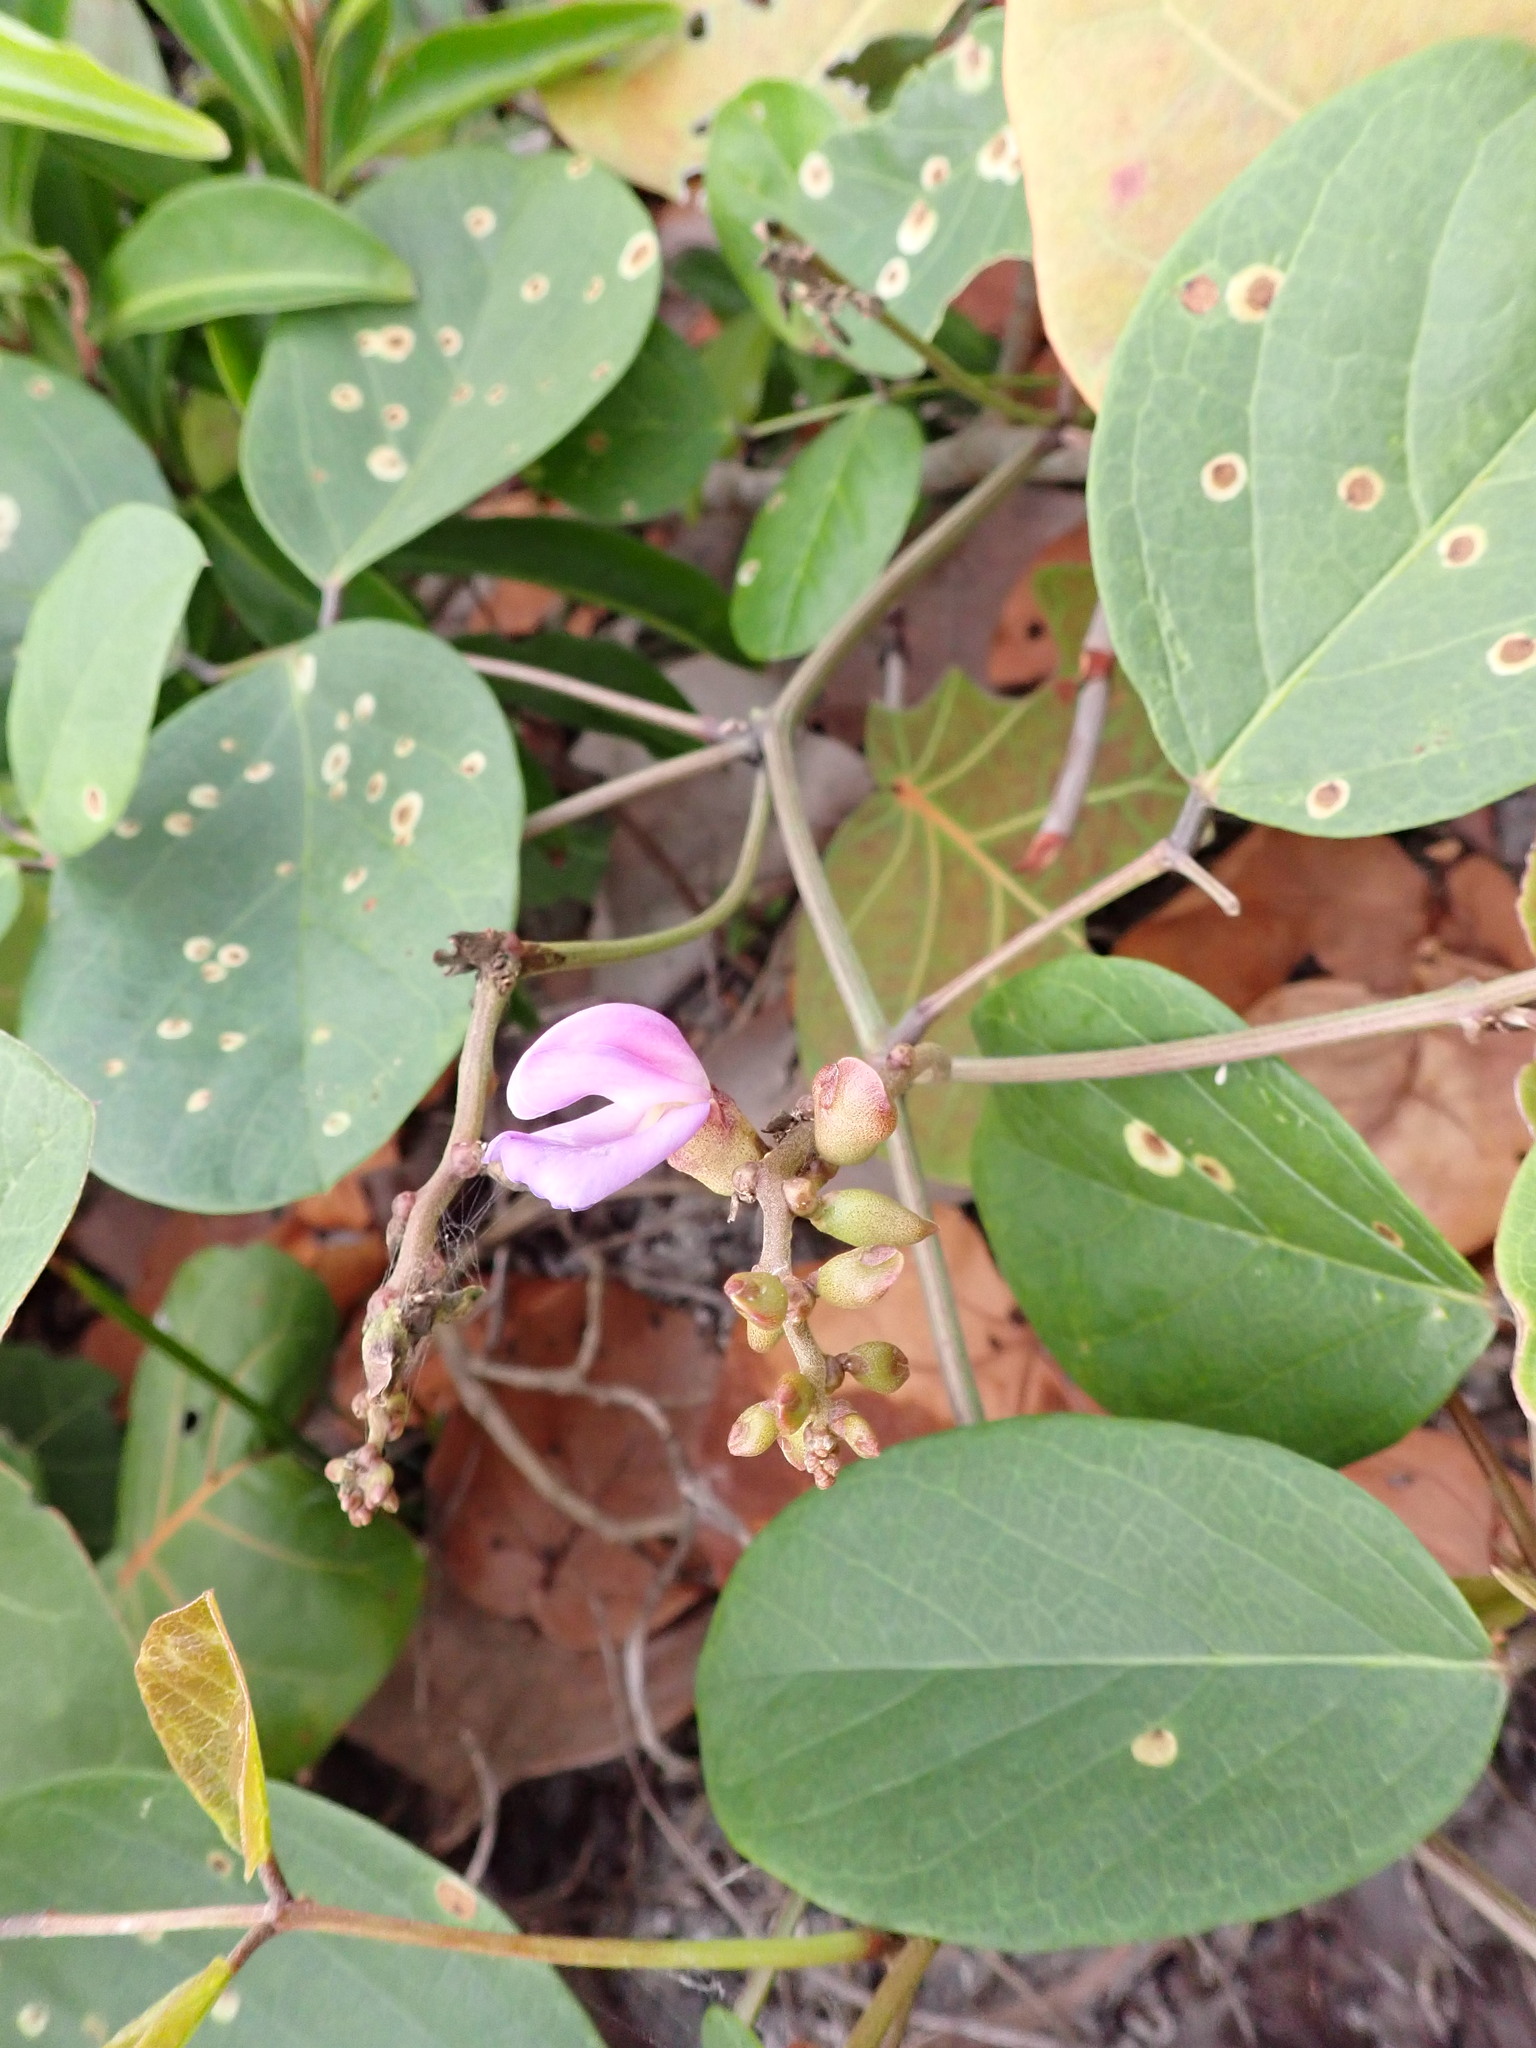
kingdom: Plantae
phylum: Tracheophyta
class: Magnoliopsida
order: Fabales
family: Fabaceae
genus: Canavalia
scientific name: Canavalia rosea
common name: Beach-bean
